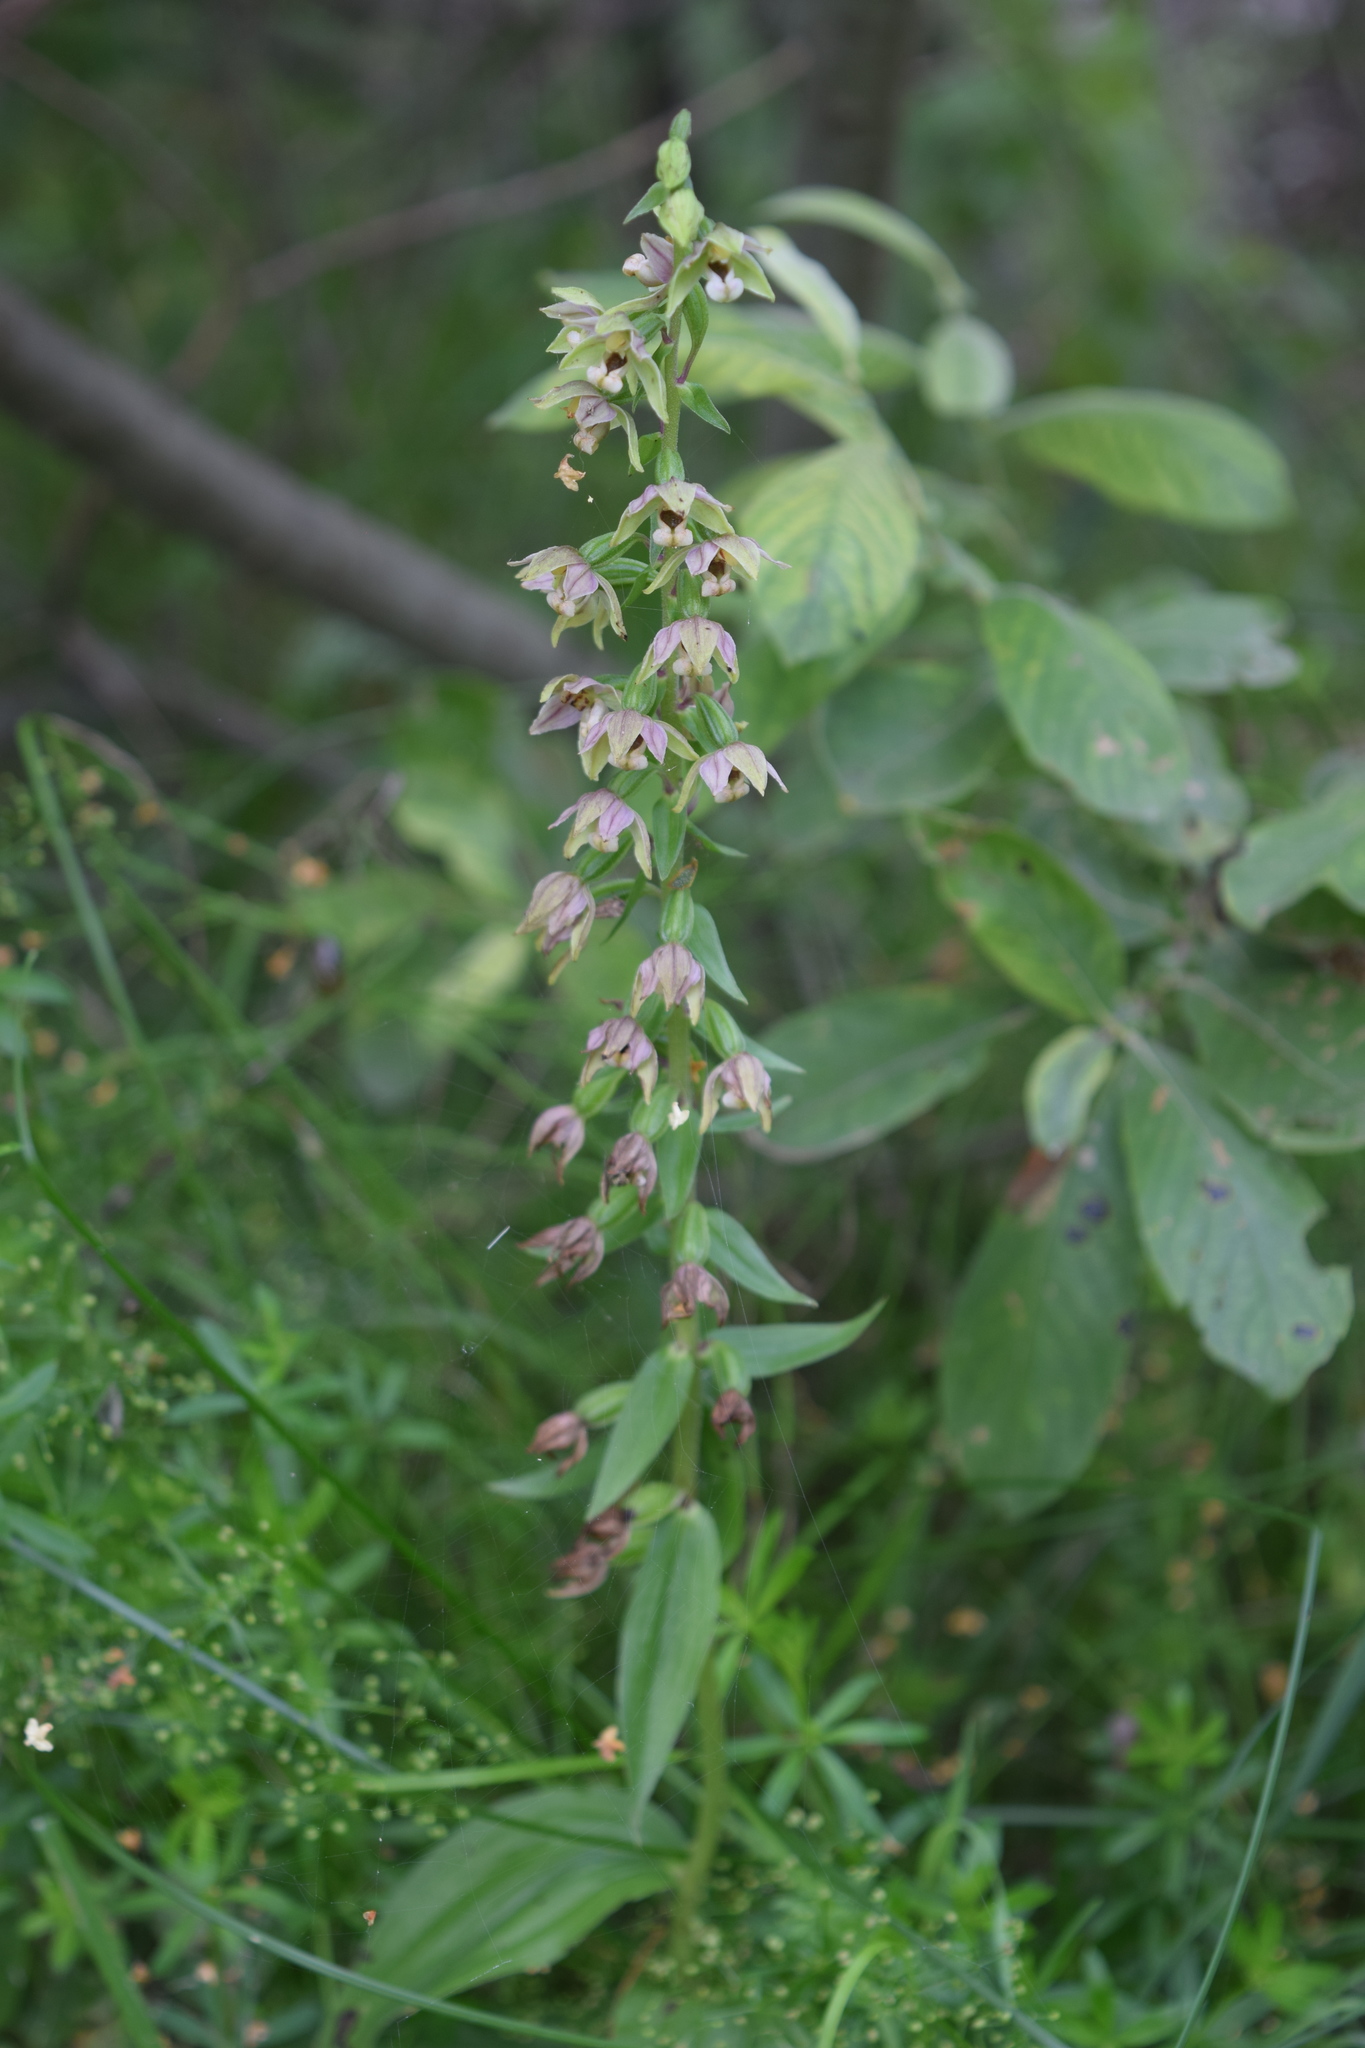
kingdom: Plantae
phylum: Tracheophyta
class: Liliopsida
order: Asparagales
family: Orchidaceae
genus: Epipactis
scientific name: Epipactis helleborine
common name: Broad-leaved helleborine
